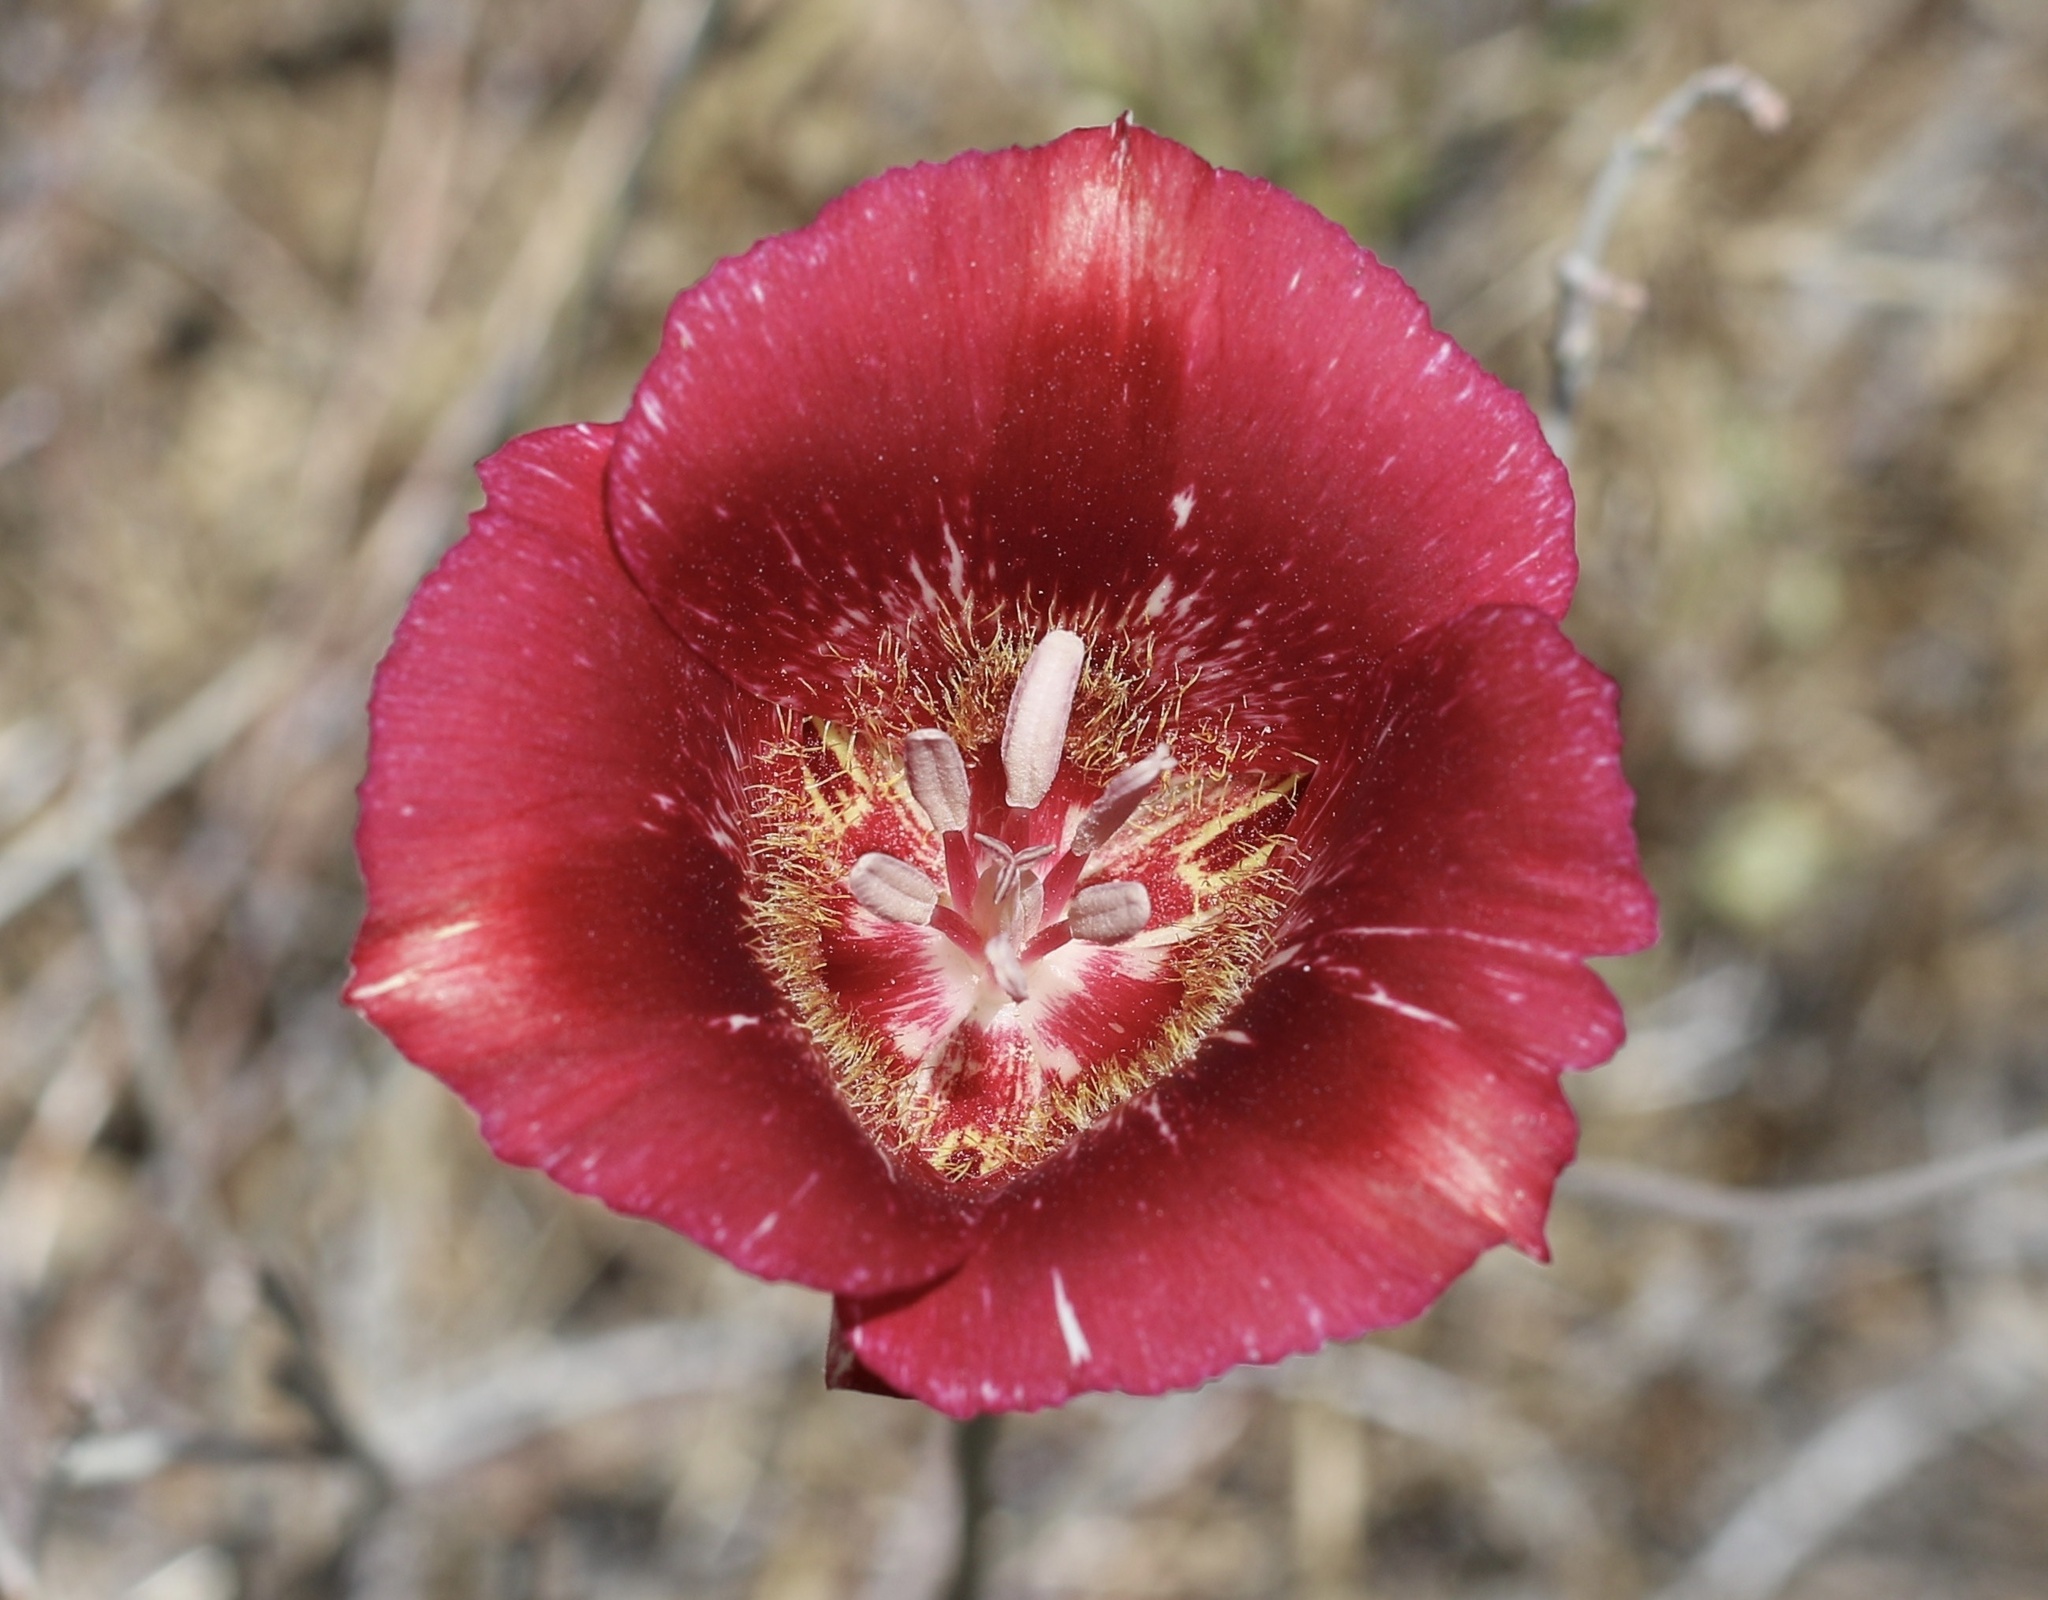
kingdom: Plantae
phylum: Tracheophyta
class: Liliopsida
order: Liliales
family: Liliaceae
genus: Calochortus
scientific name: Calochortus venustus
